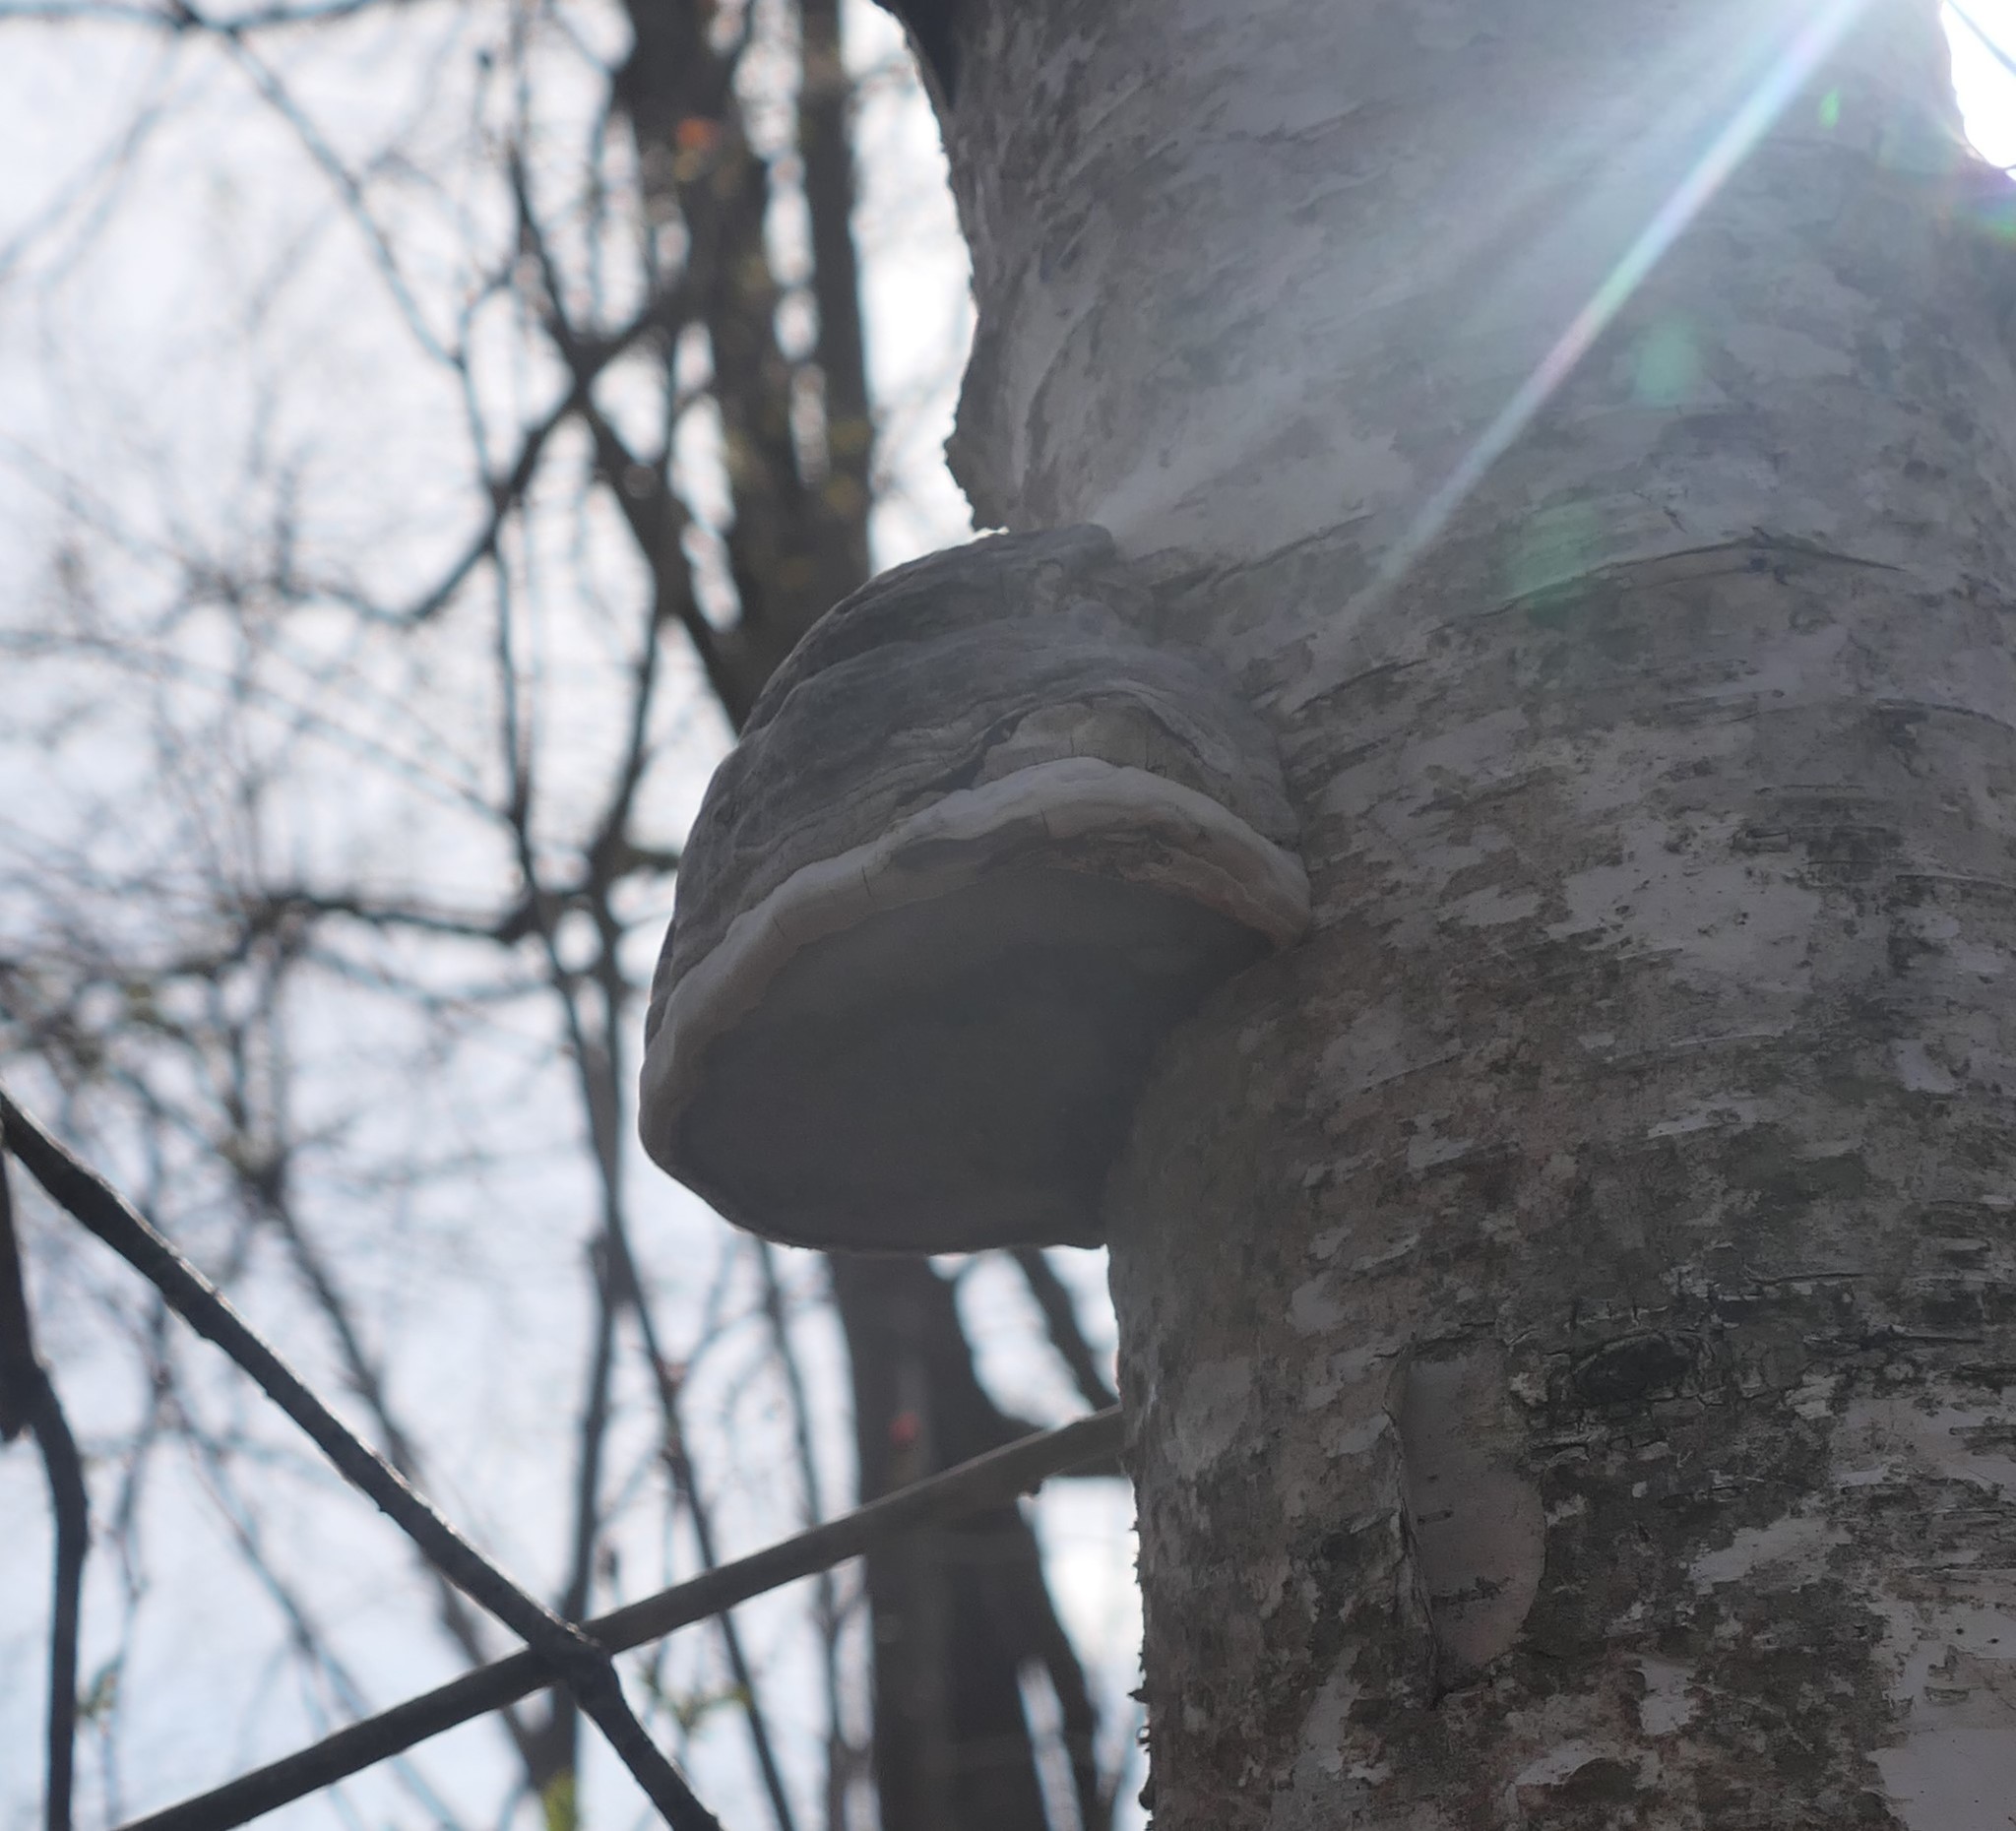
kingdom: Fungi
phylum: Basidiomycota
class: Agaricomycetes
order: Polyporales
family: Polyporaceae
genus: Fomes
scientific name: Fomes fomentarius
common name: Hoof fungus
